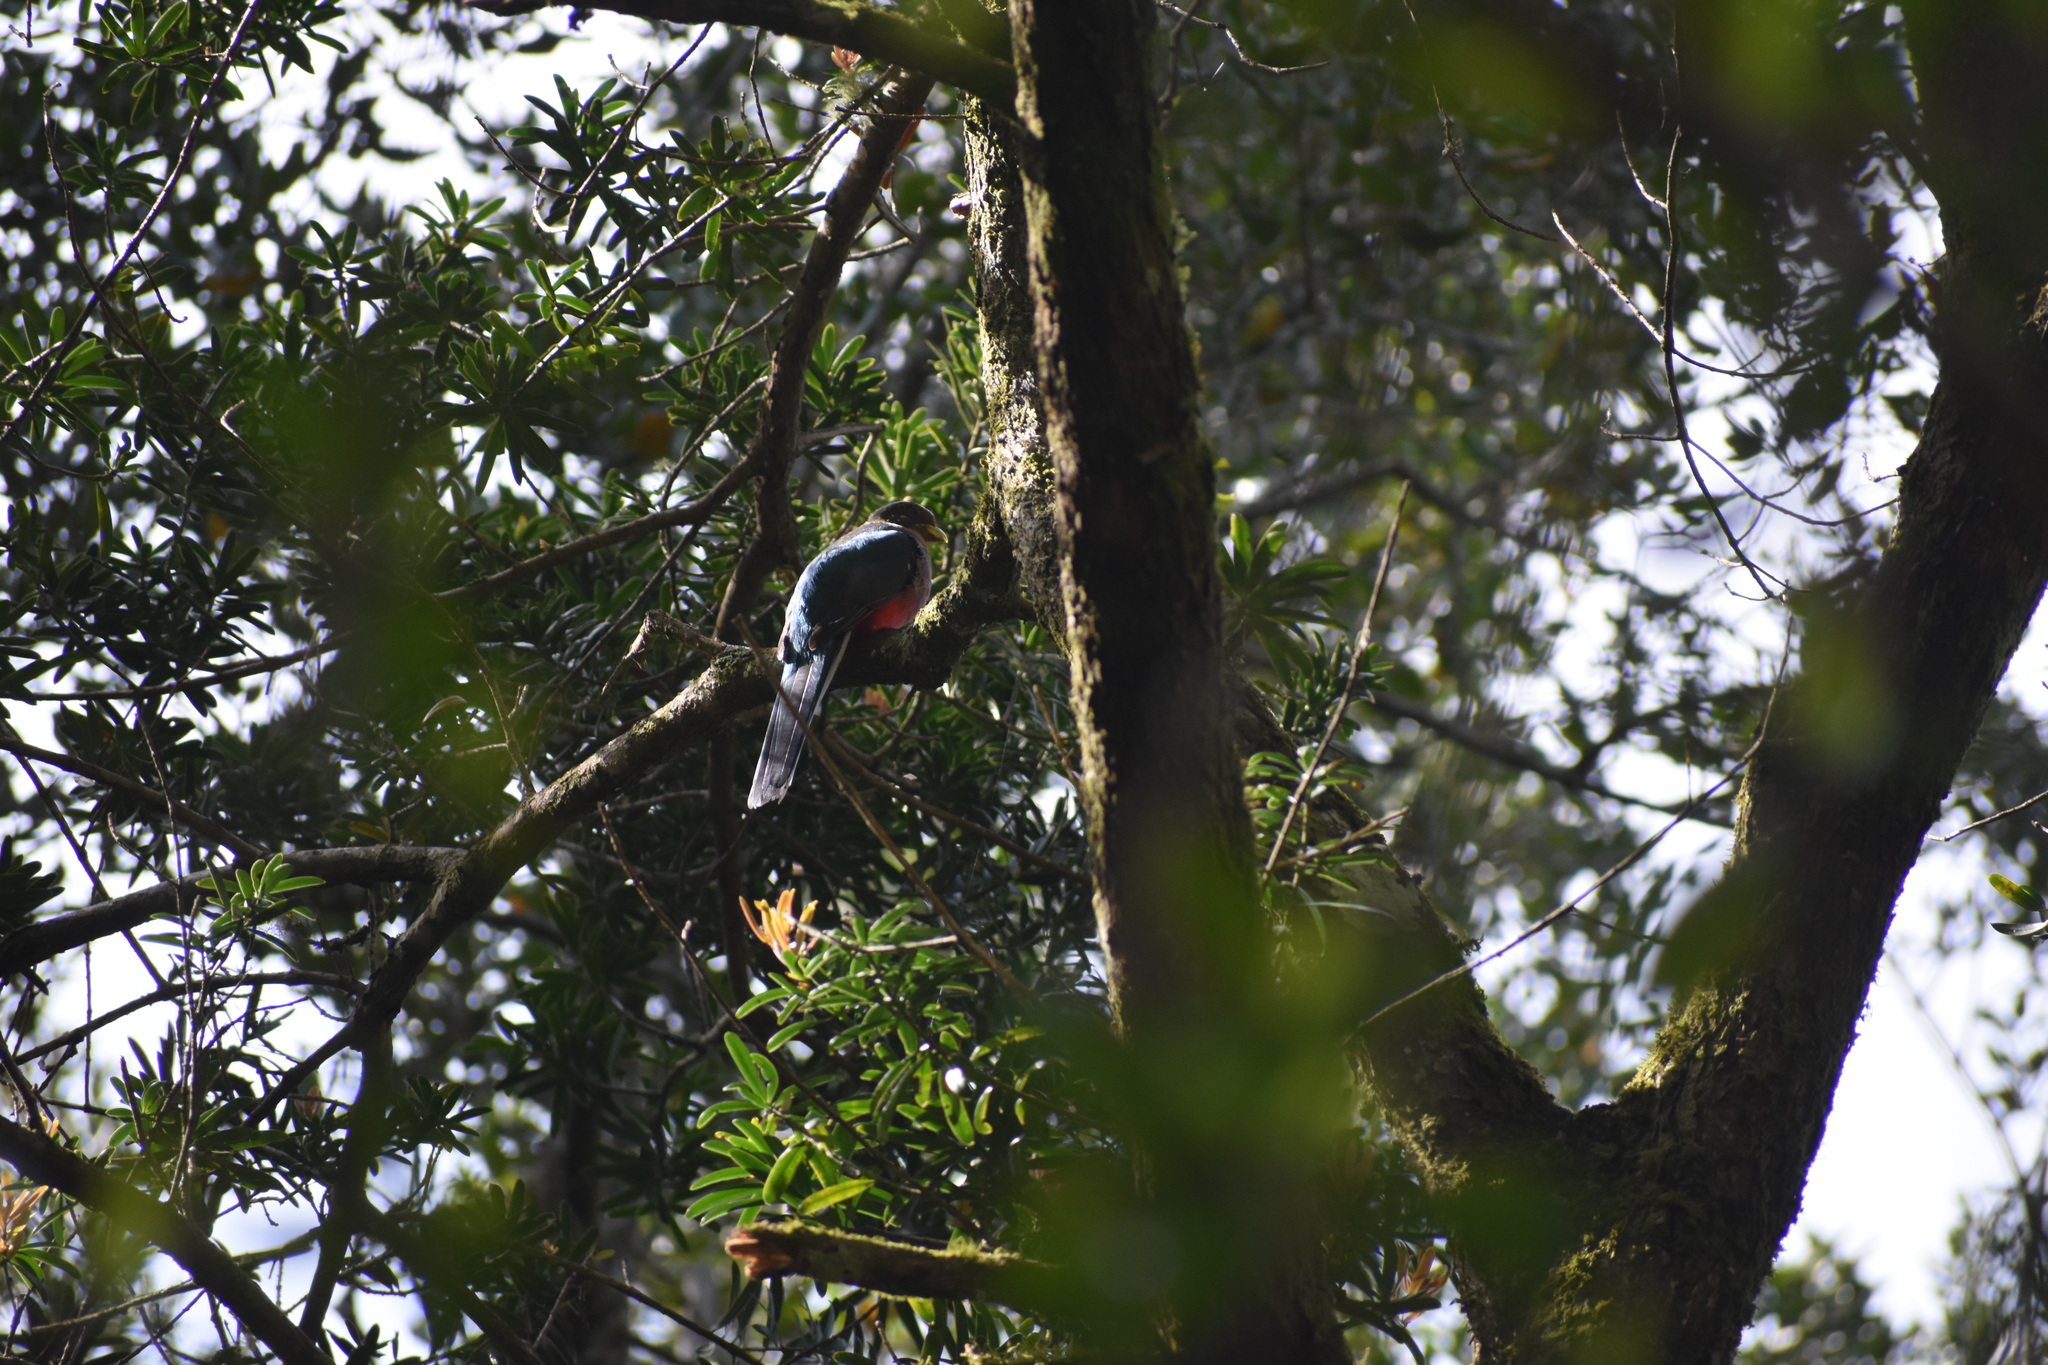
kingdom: Animalia
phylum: Chordata
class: Aves
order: Trogoniformes
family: Trogonidae
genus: Apaloderma
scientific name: Apaloderma narina
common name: Narina trogon
